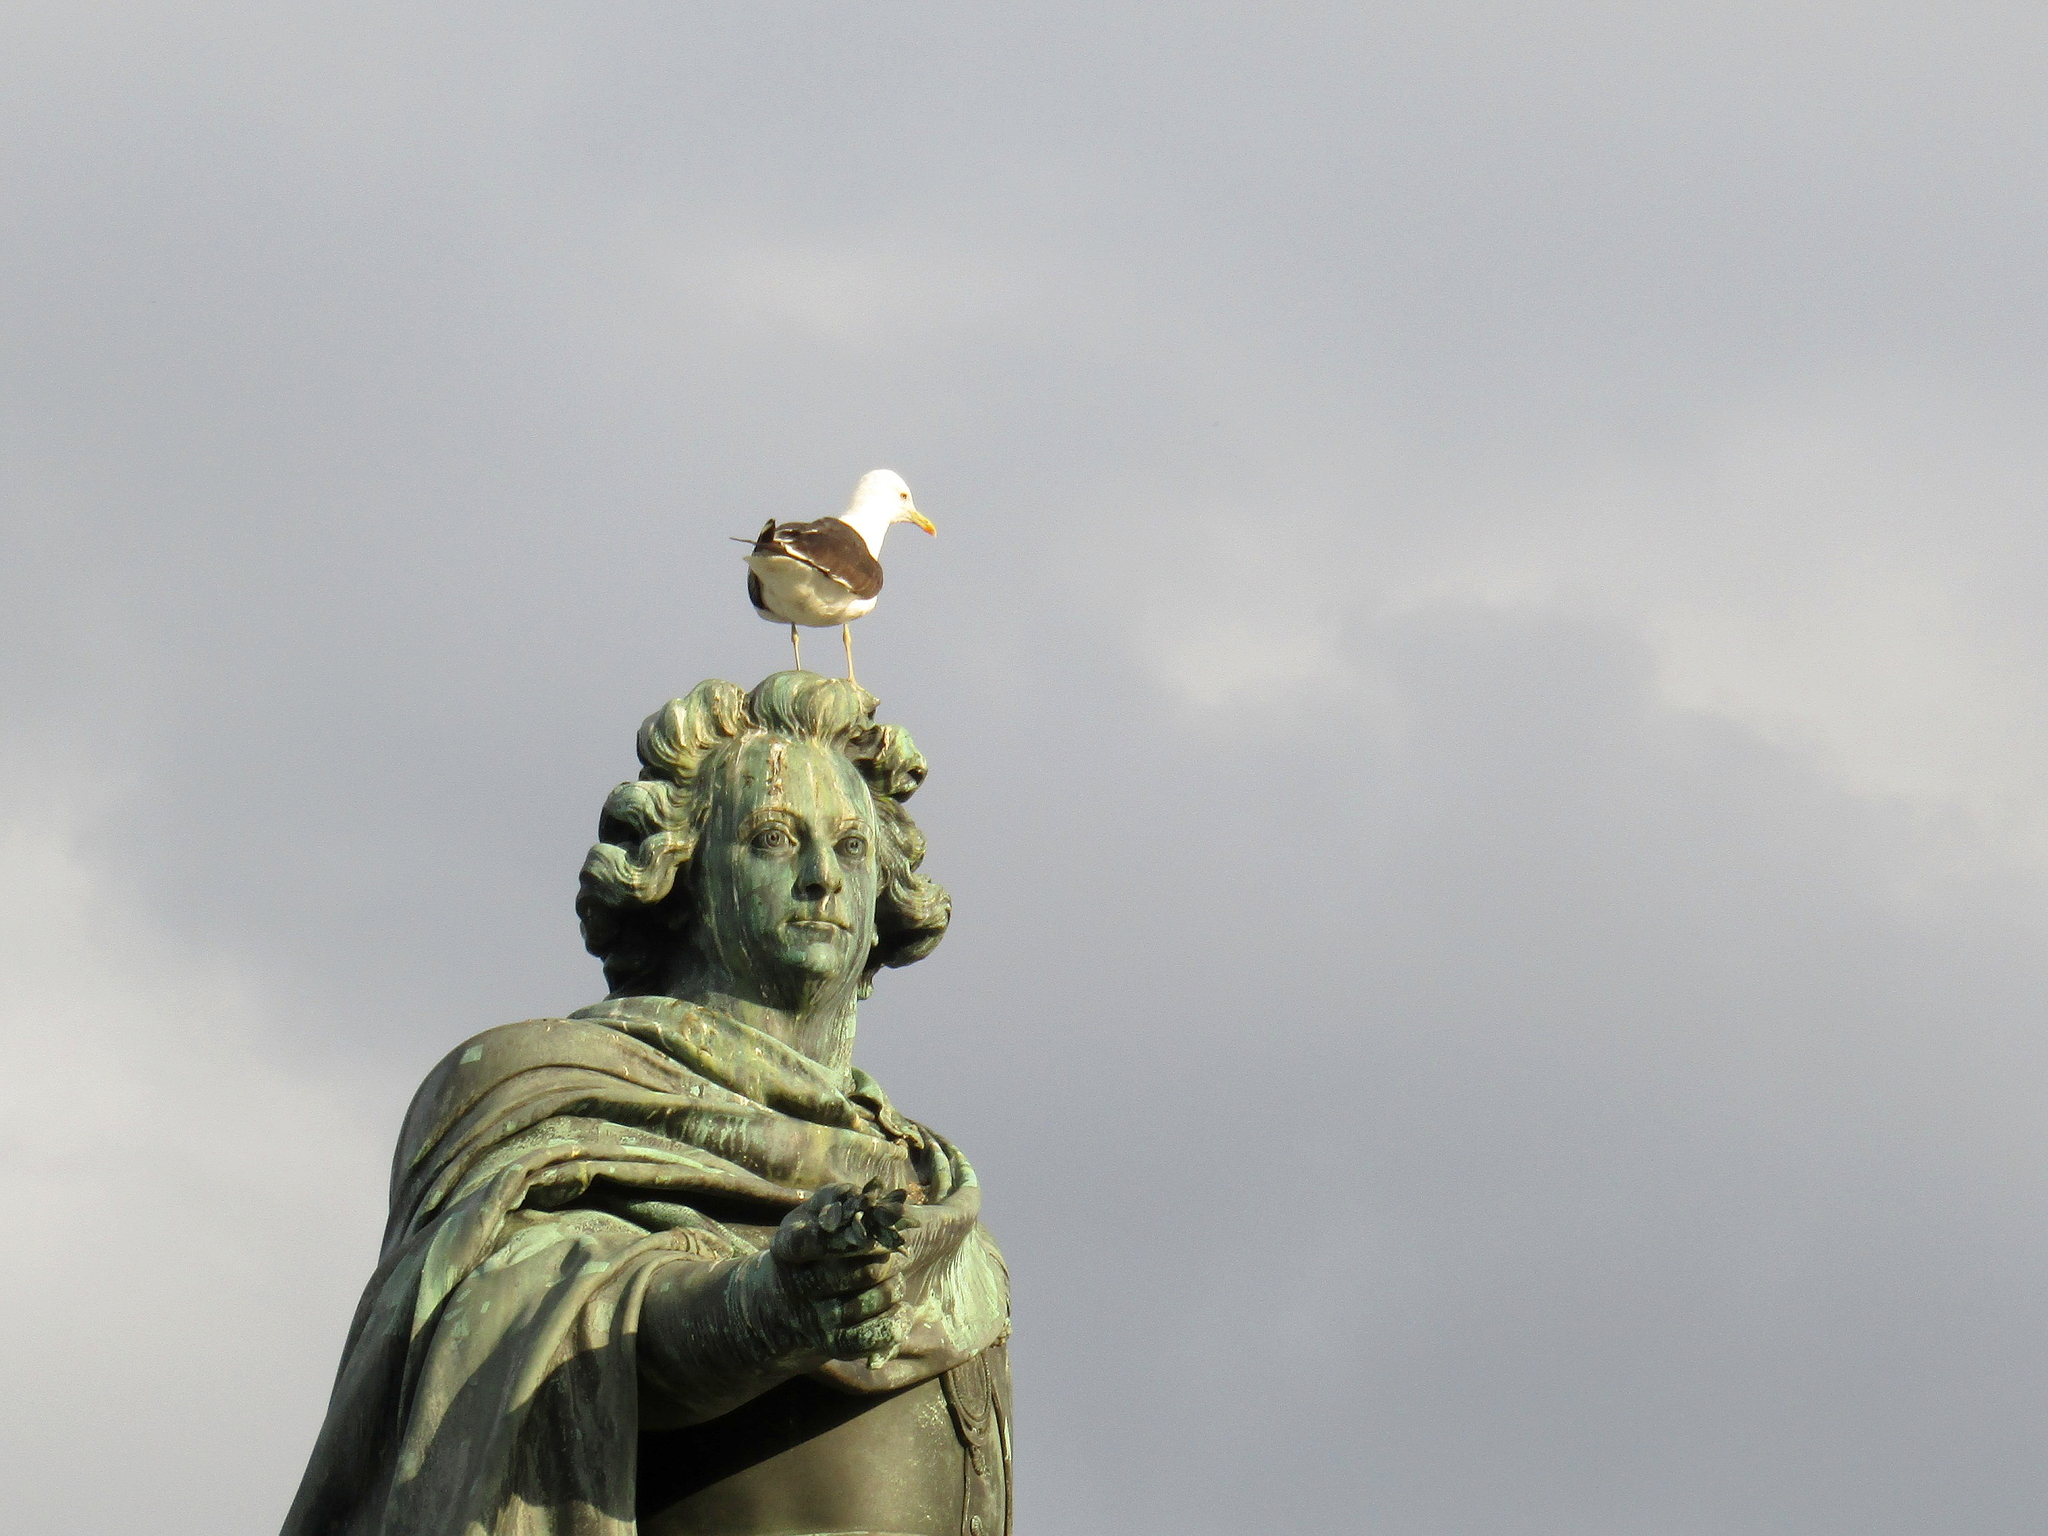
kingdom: Animalia
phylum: Chordata
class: Aves
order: Charadriiformes
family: Laridae
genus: Larus
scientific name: Larus fuscus
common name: Lesser black-backed gull
